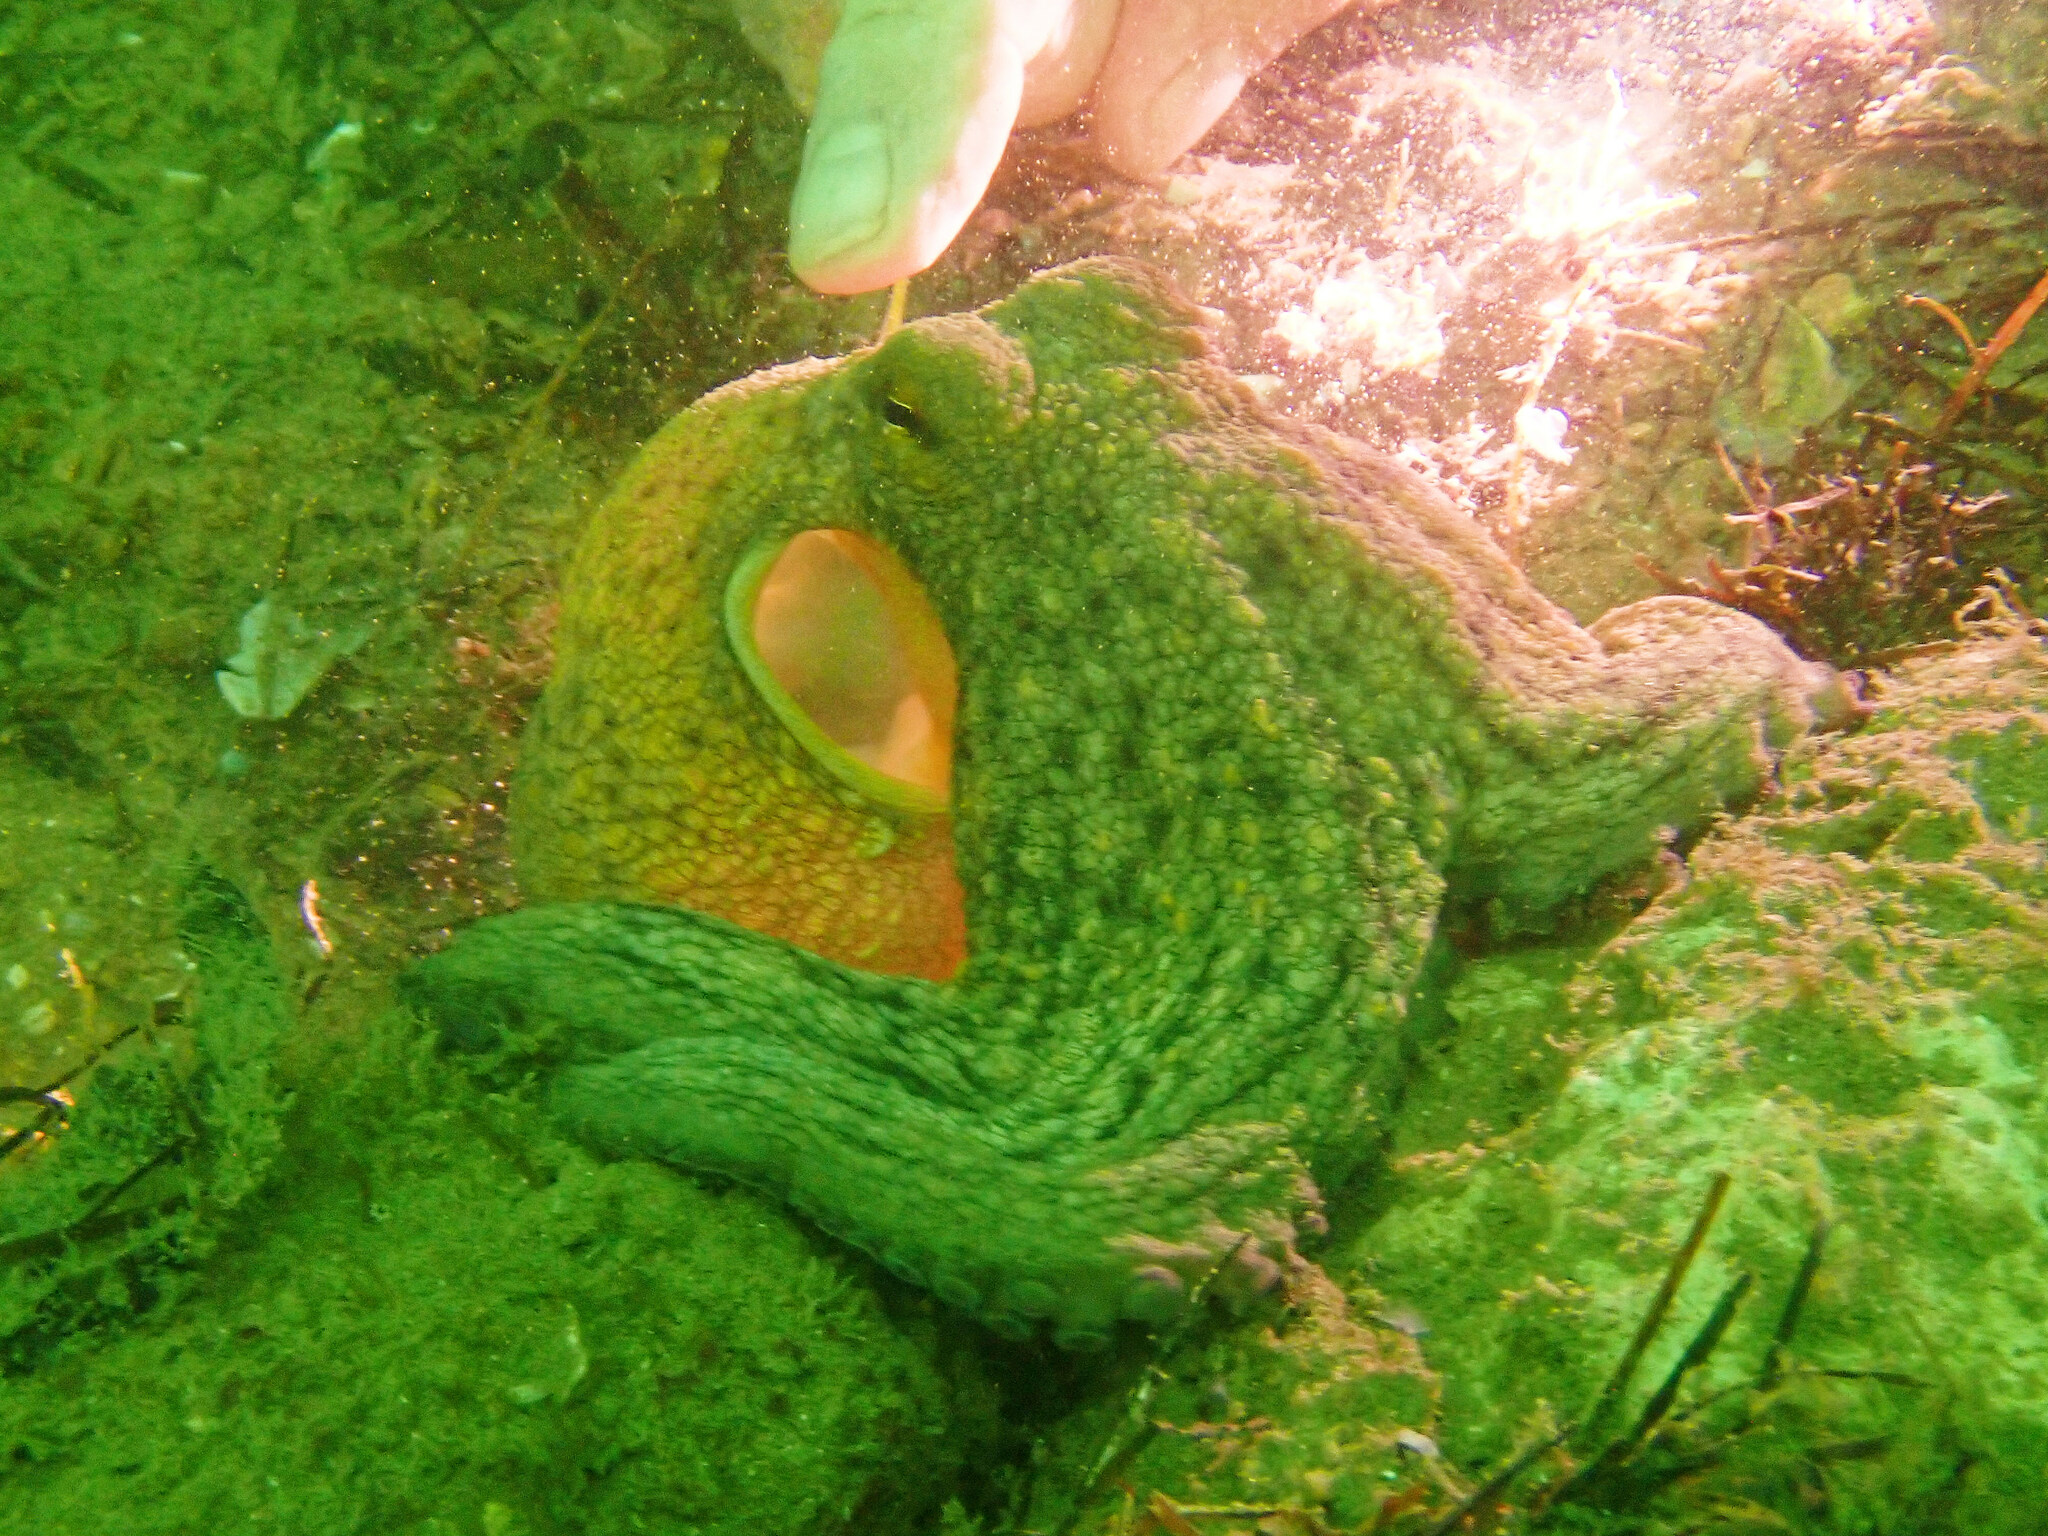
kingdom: Animalia
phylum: Mollusca
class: Cephalopoda
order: Octopoda
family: Octopodidae
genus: Octopus
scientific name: Octopus vulgaris
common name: Common octopus
